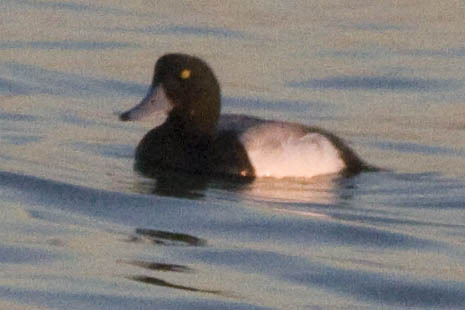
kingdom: Animalia
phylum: Chordata
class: Aves
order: Anseriformes
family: Anatidae
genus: Aythya
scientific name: Aythya marila
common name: Greater scaup
